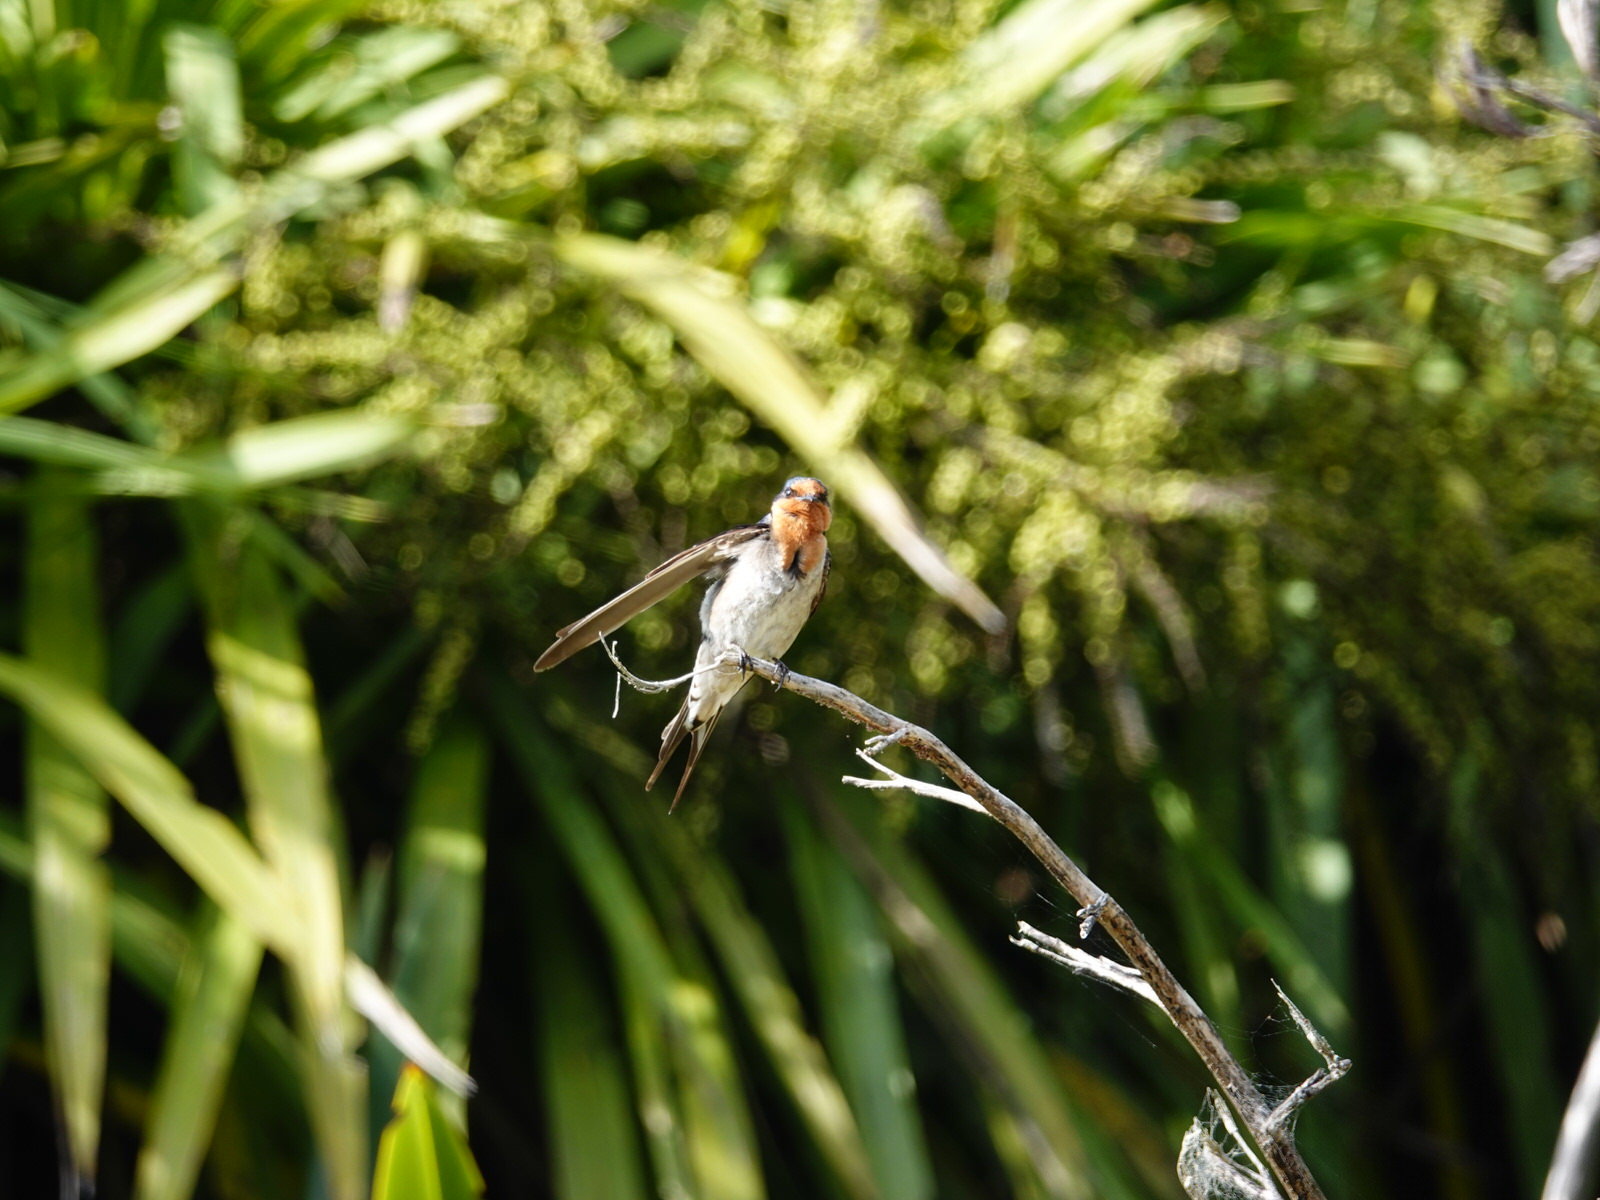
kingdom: Animalia
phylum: Chordata
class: Aves
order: Passeriformes
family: Hirundinidae
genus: Hirundo
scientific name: Hirundo neoxena
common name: Welcome swallow
